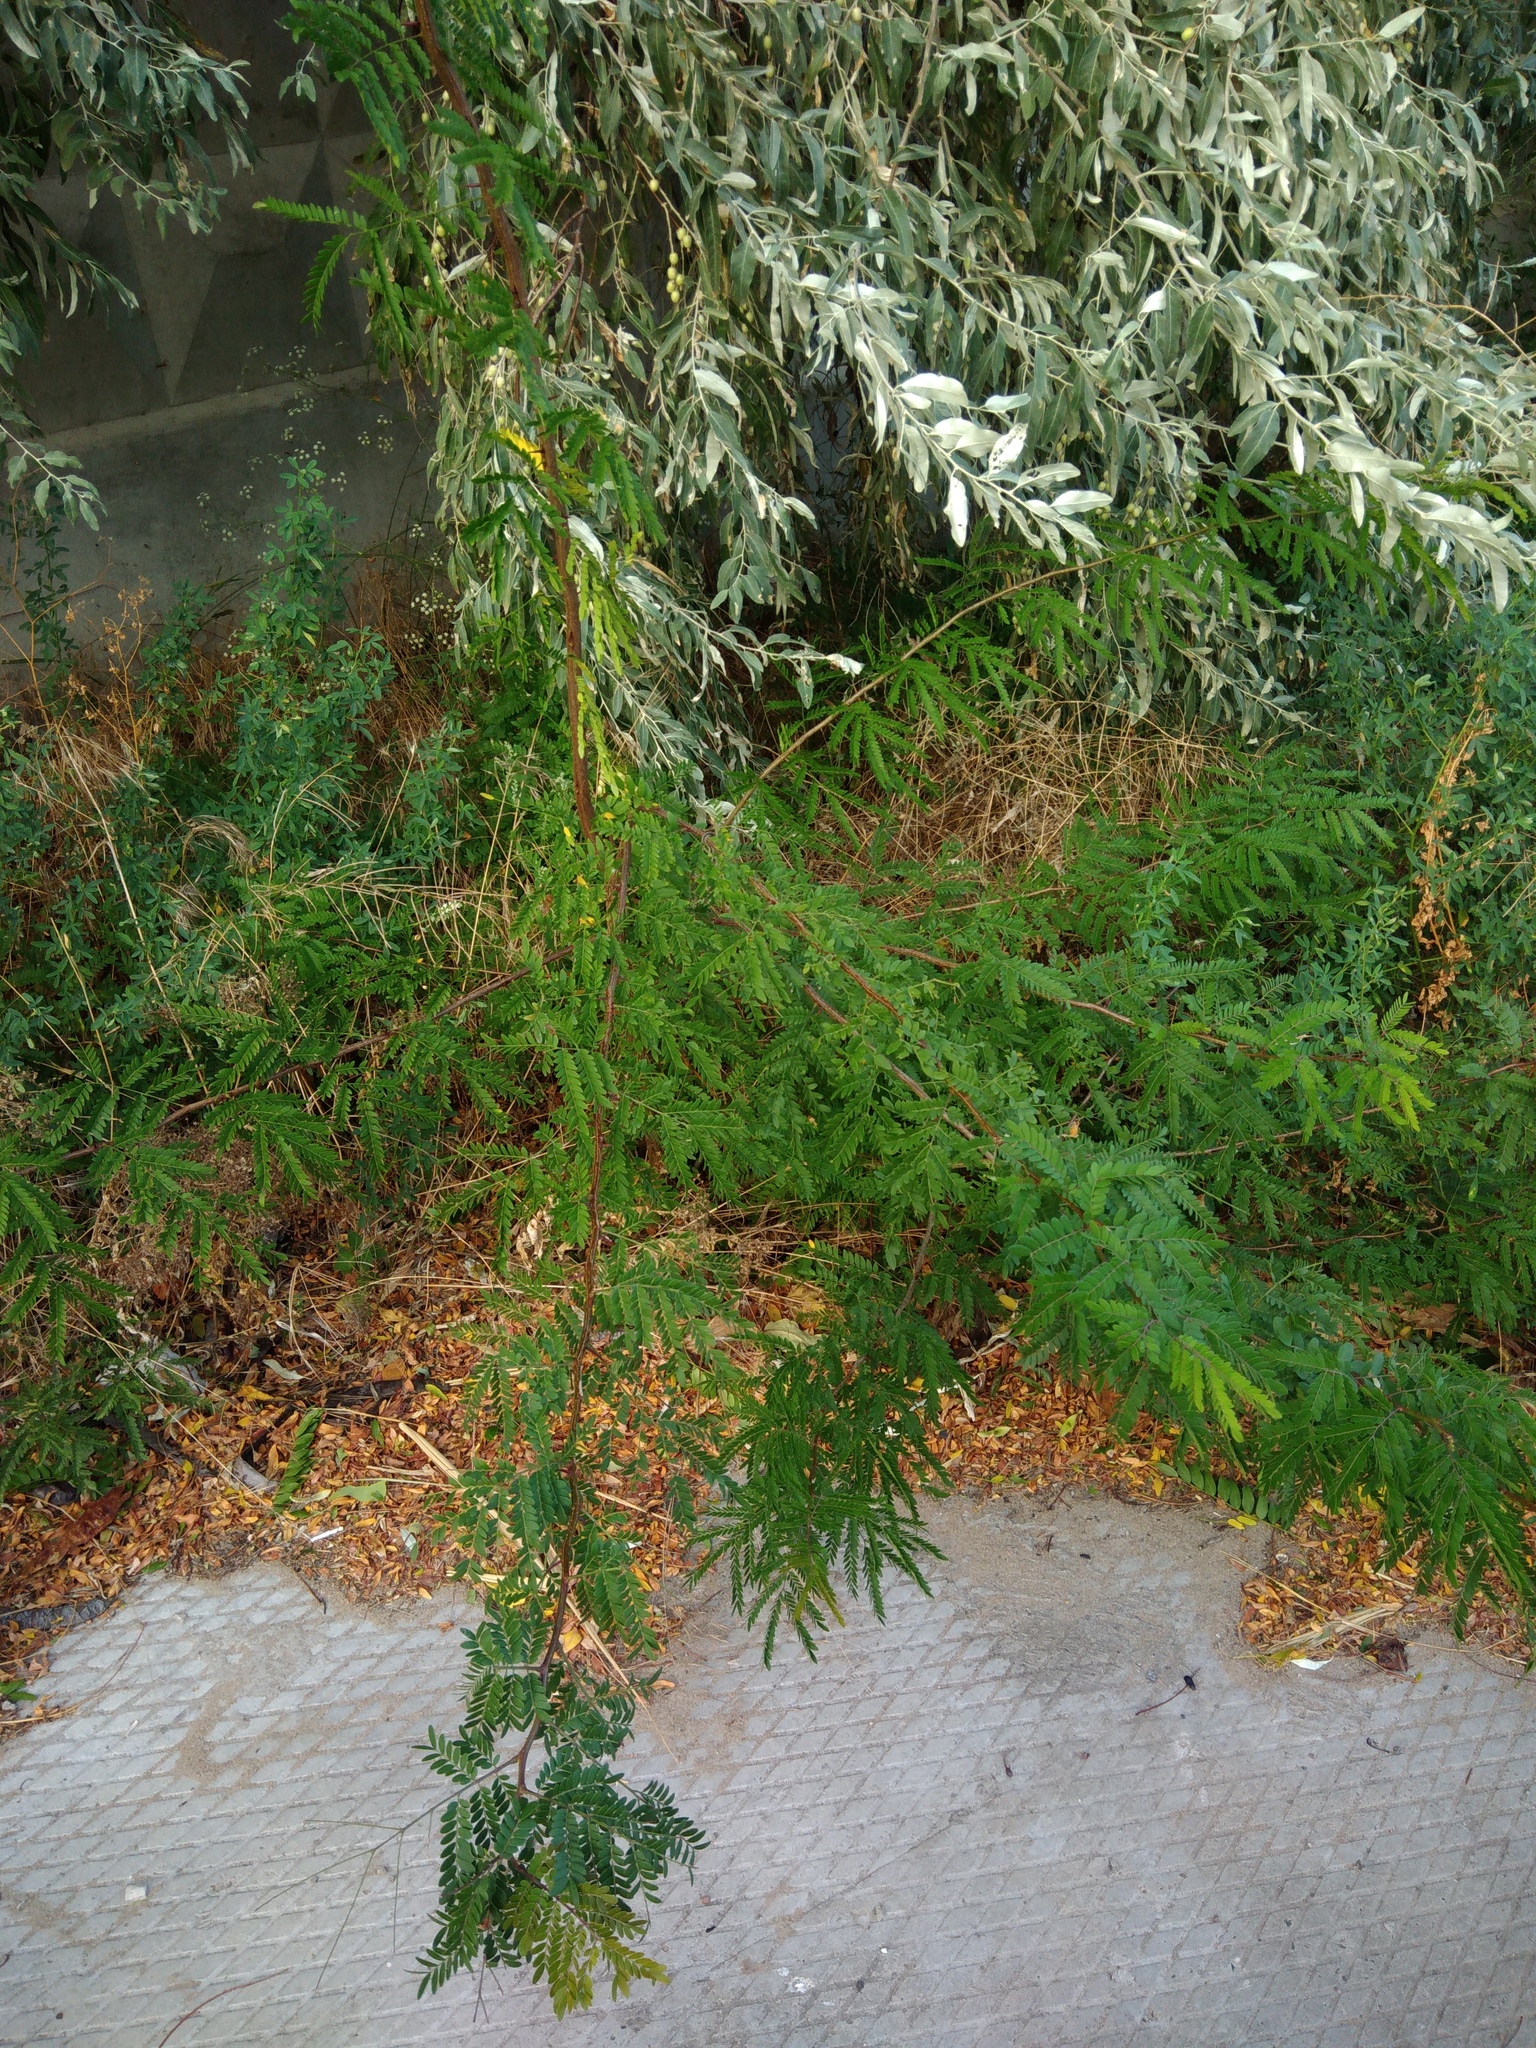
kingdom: Plantae
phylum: Tracheophyta
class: Magnoliopsida
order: Fabales
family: Fabaceae
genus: Gleditsia
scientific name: Gleditsia triacanthos
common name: Common honeylocust
